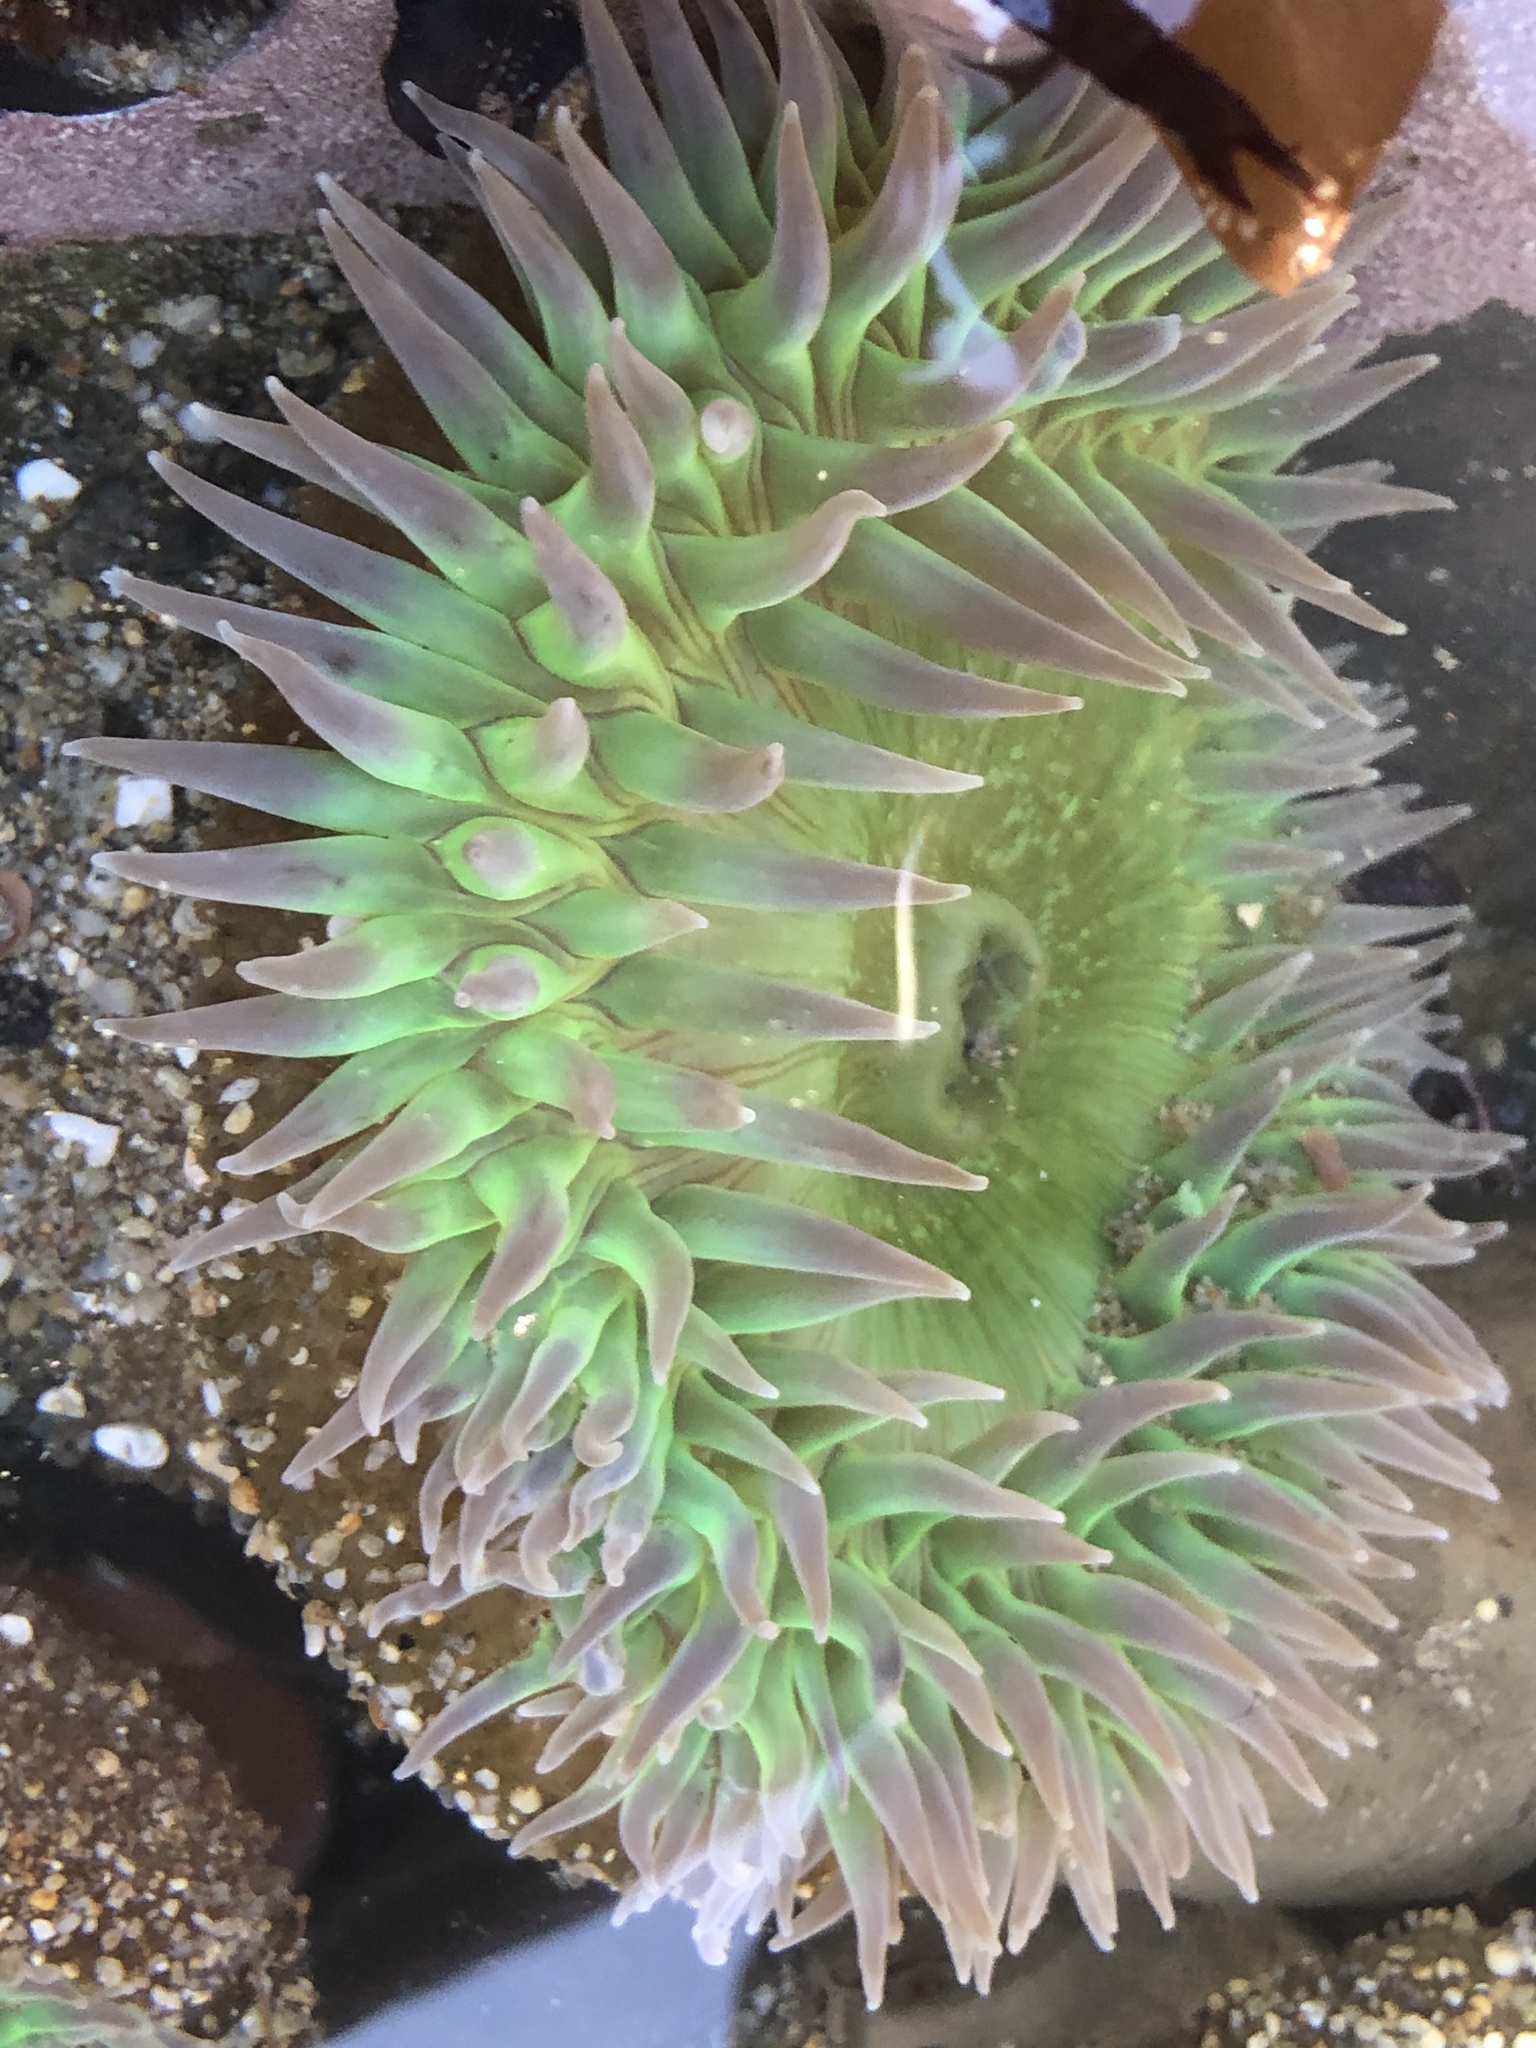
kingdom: Animalia
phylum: Cnidaria
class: Anthozoa
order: Actiniaria
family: Actiniidae
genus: Anthopleura
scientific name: Anthopleura xanthogrammica
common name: Giant green anemone
